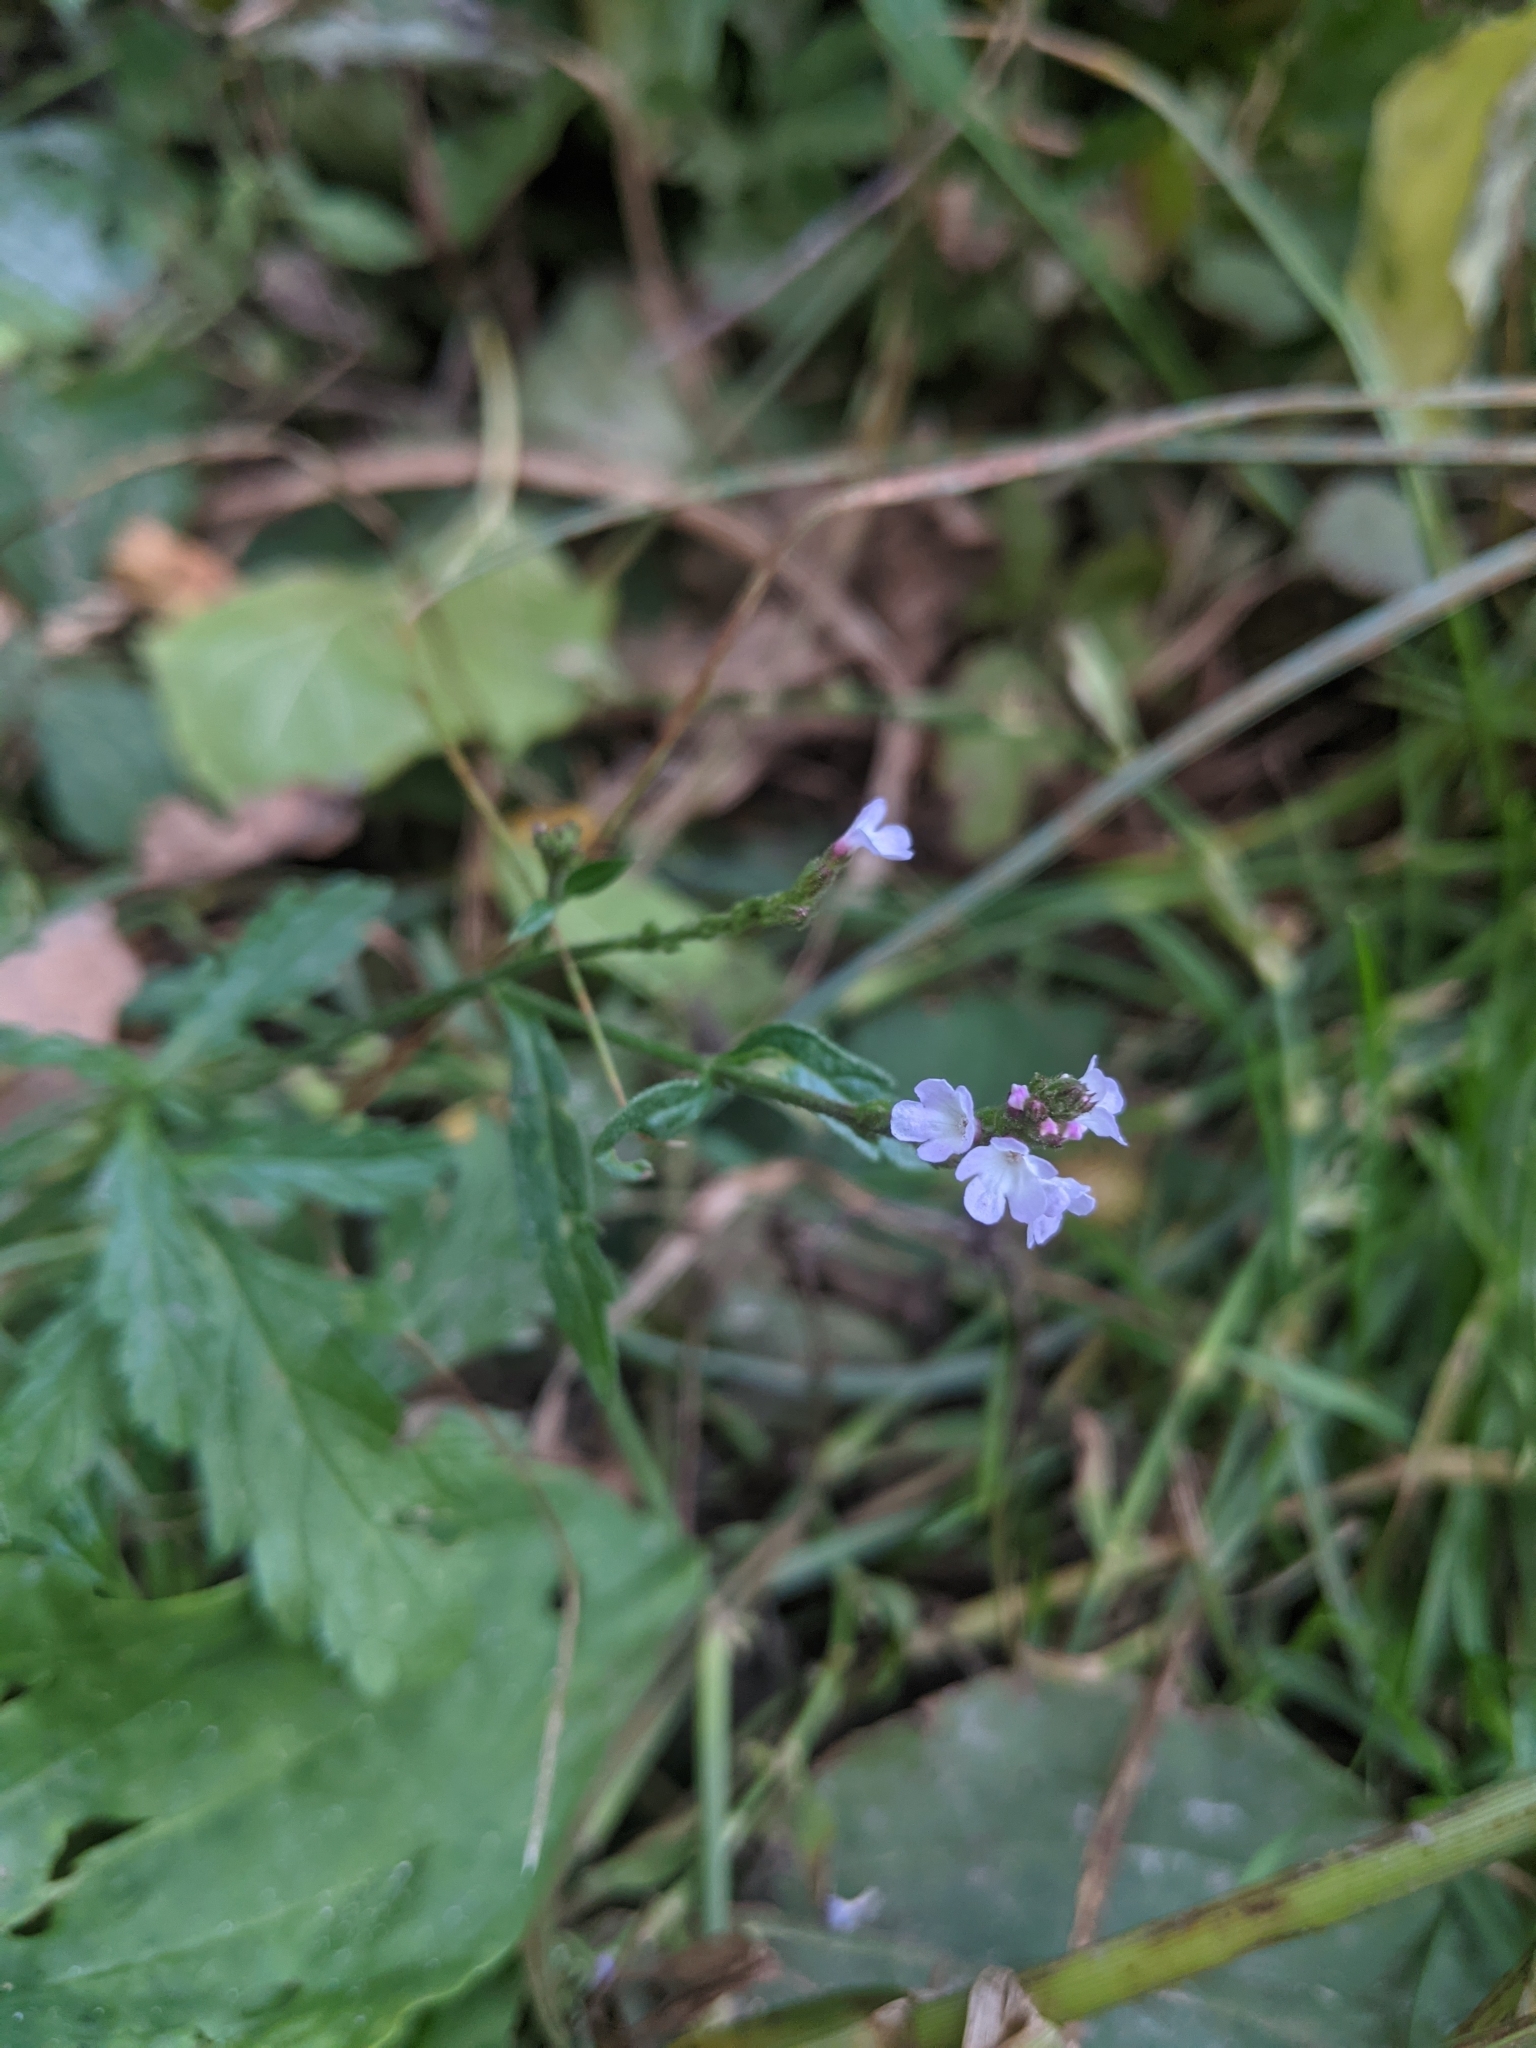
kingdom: Plantae
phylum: Tracheophyta
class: Magnoliopsida
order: Lamiales
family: Verbenaceae
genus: Verbena
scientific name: Verbena officinalis
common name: Vervain
